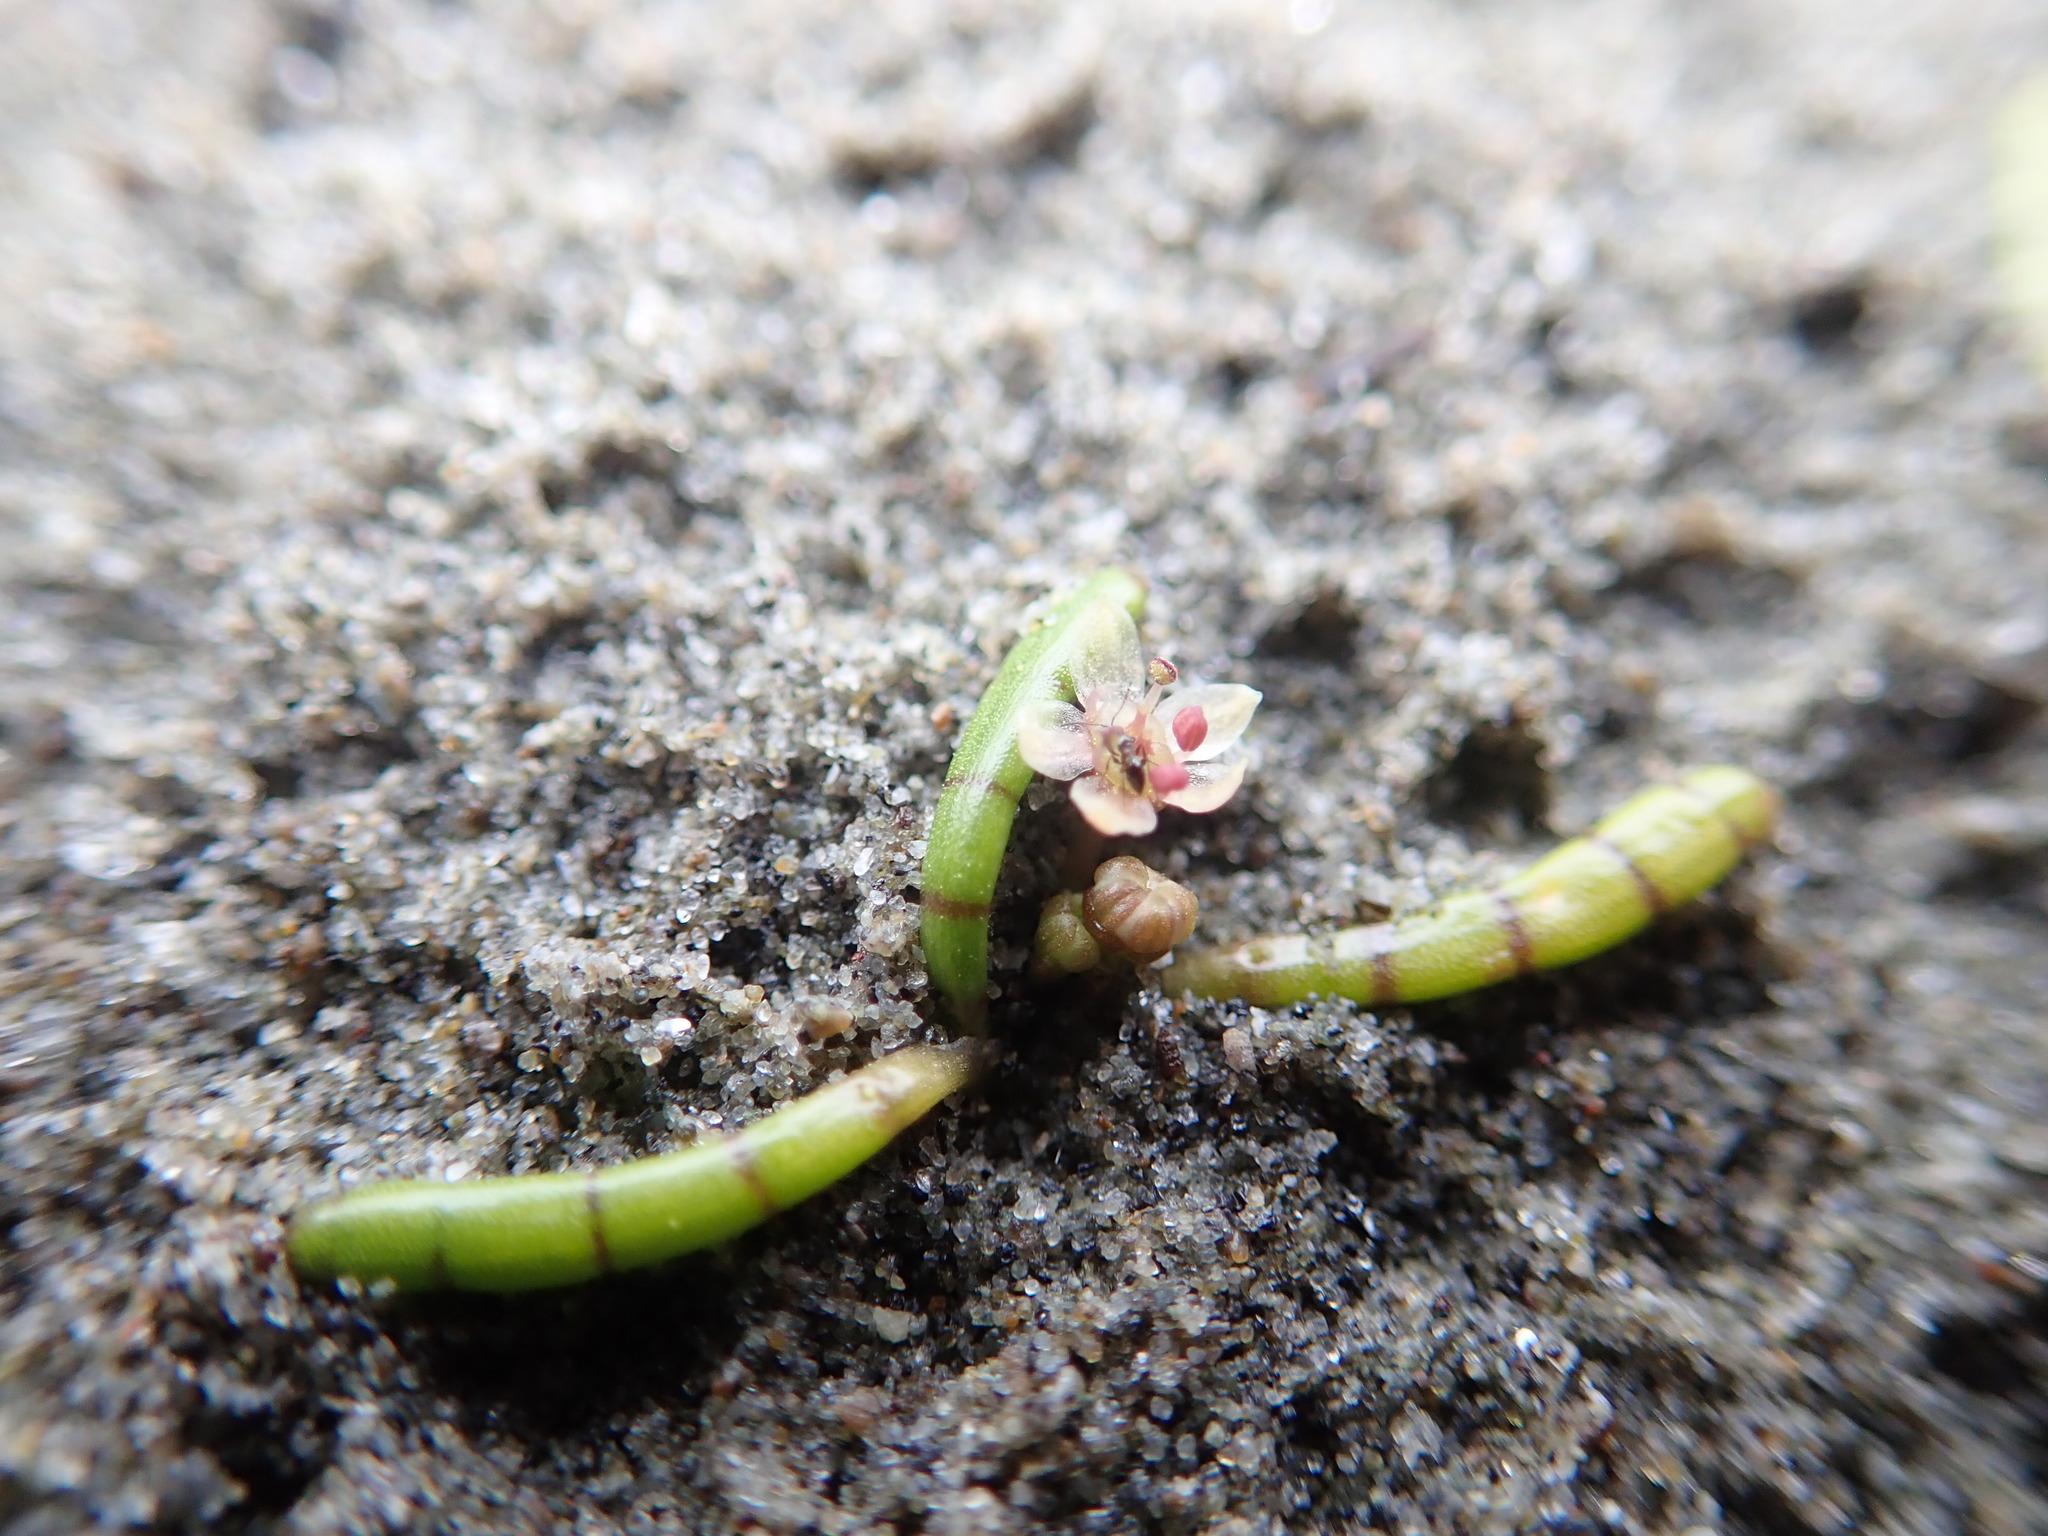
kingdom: Plantae
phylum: Tracheophyta
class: Magnoliopsida
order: Apiales
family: Apiaceae
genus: Lilaeopsis
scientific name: Lilaeopsis novae-zelandiae
